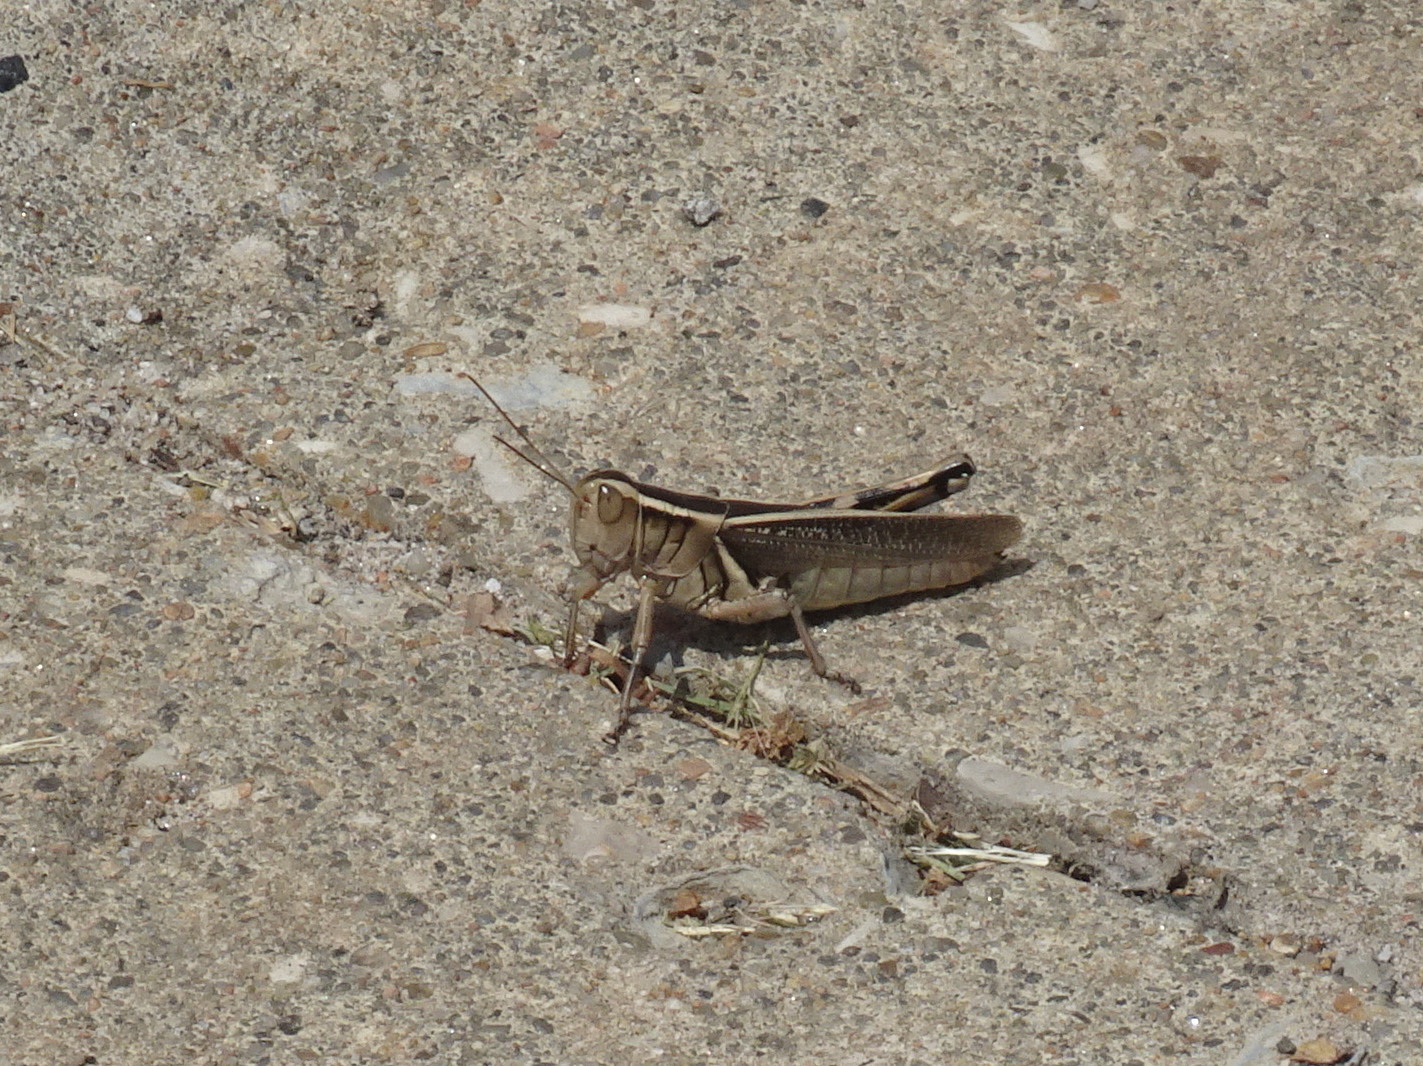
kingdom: Animalia
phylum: Arthropoda
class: Insecta
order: Orthoptera
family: Acrididae
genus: Melanoplus
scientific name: Melanoplus bivittatus
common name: Two-striped grasshopper
